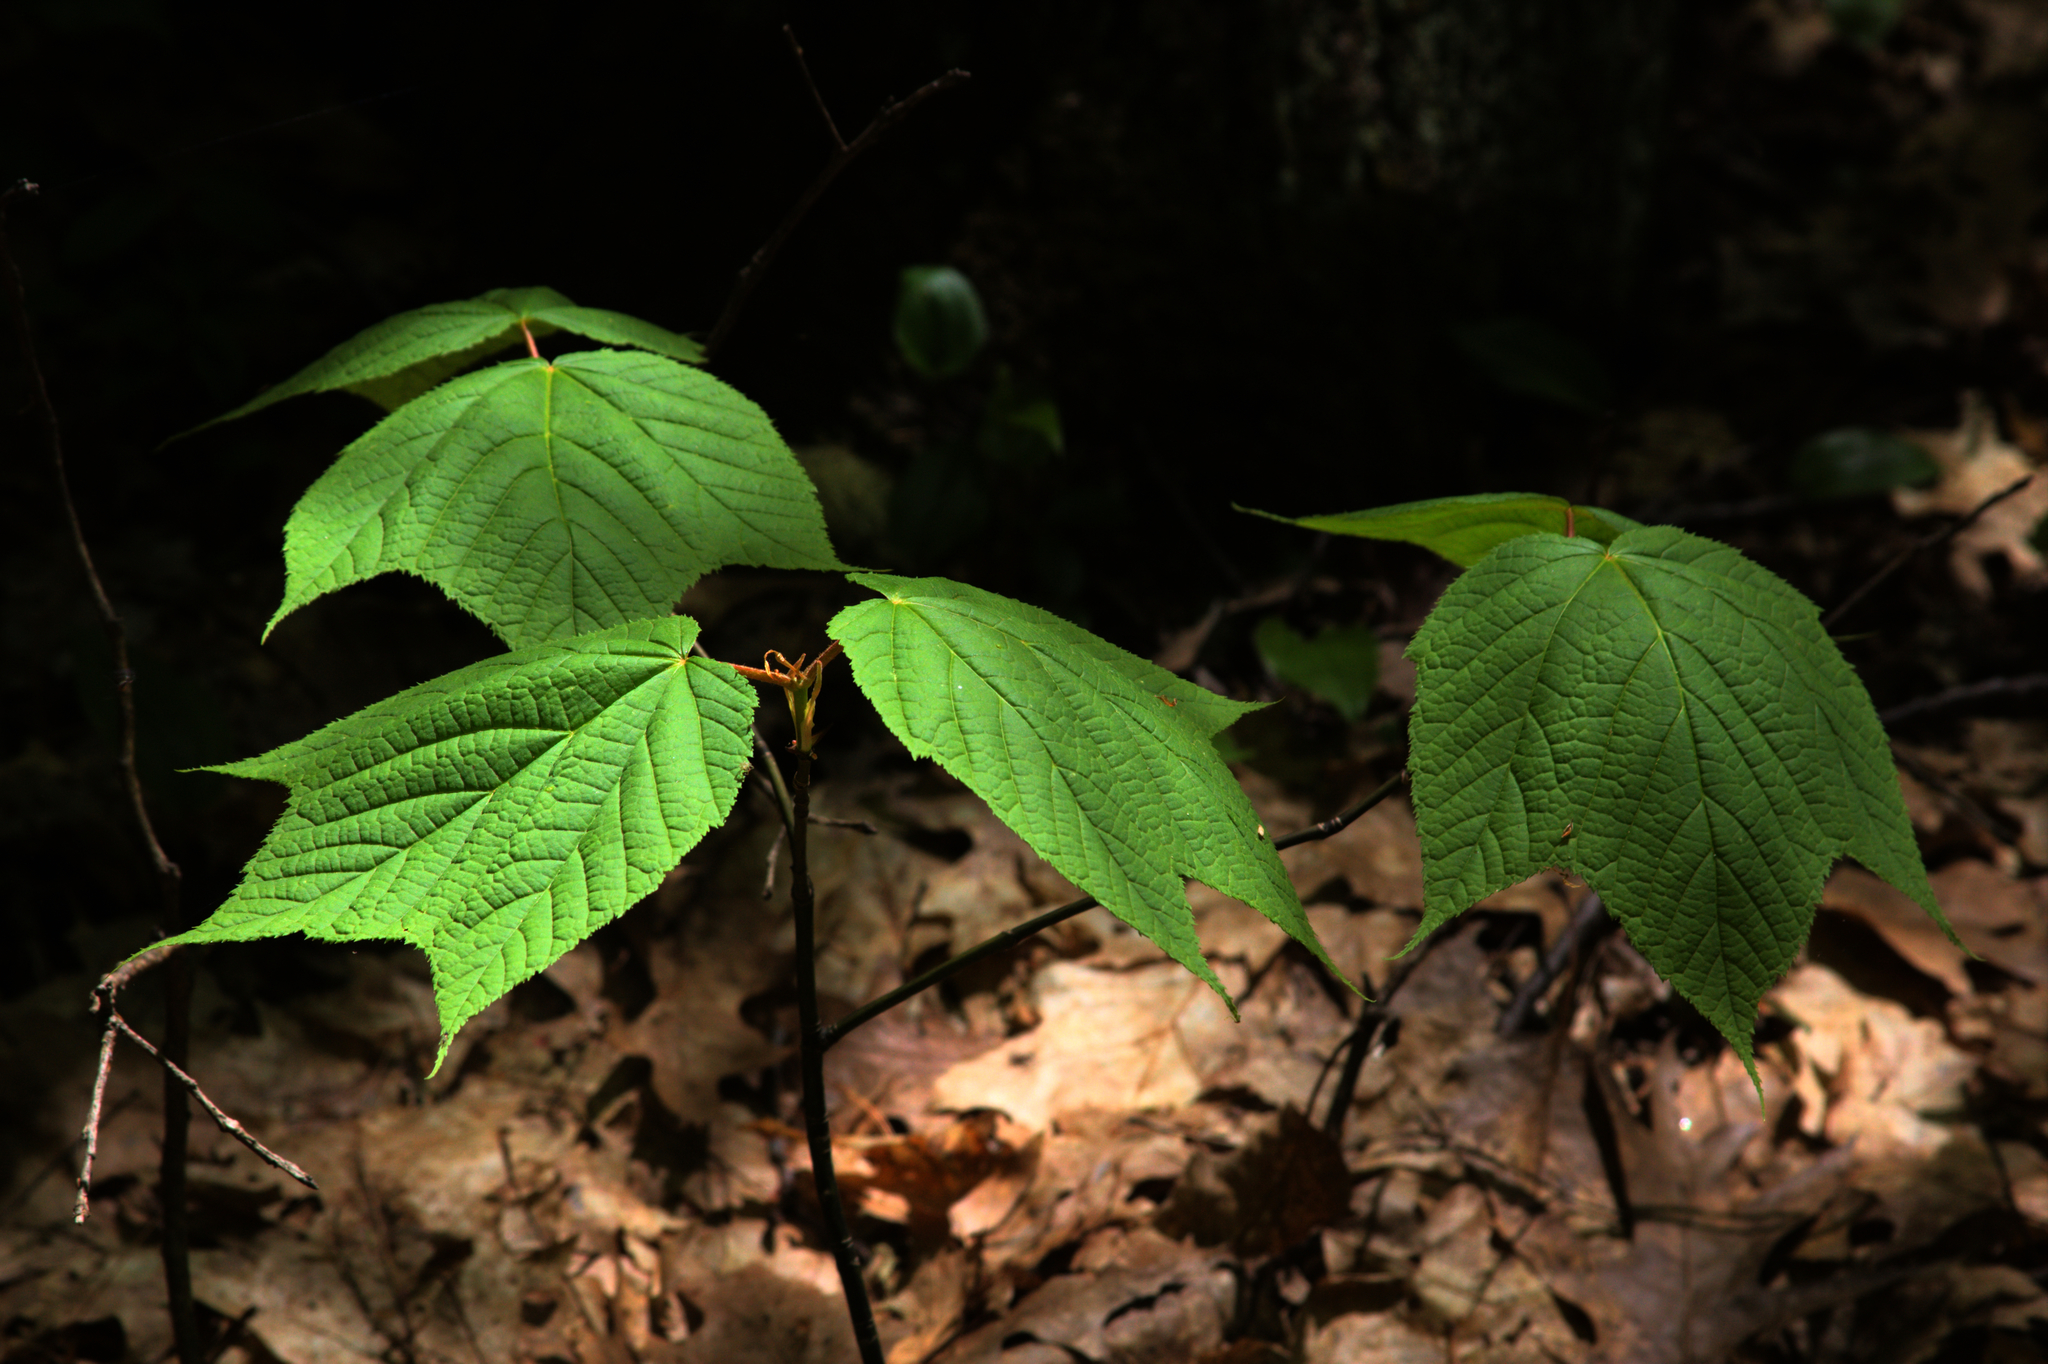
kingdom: Plantae
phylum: Tracheophyta
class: Magnoliopsida
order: Sapindales
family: Sapindaceae
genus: Acer
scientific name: Acer pensylvanicum
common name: Moosewood
